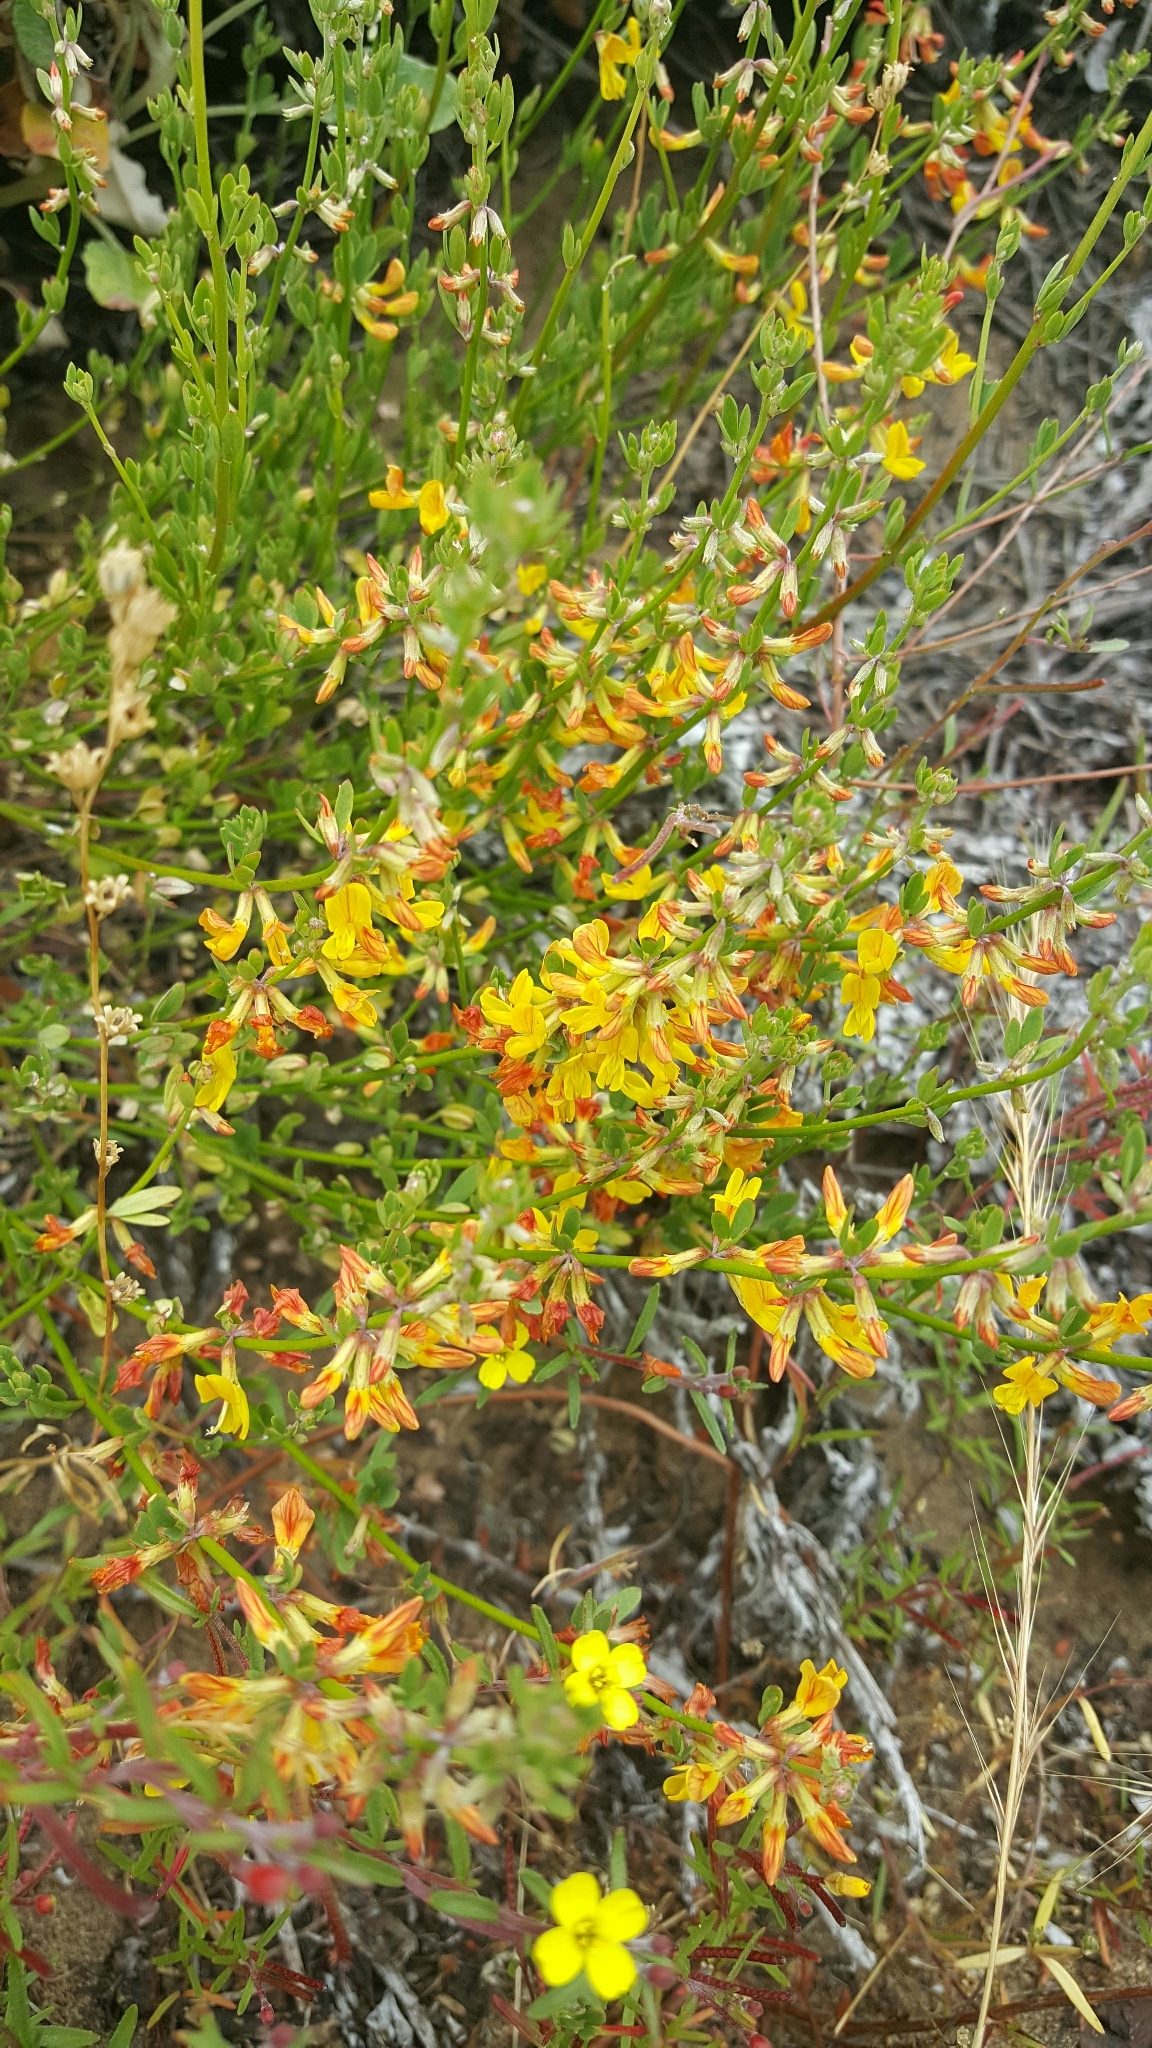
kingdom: Plantae
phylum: Tracheophyta
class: Magnoliopsida
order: Fabales
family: Fabaceae
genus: Acmispon
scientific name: Acmispon glaber
